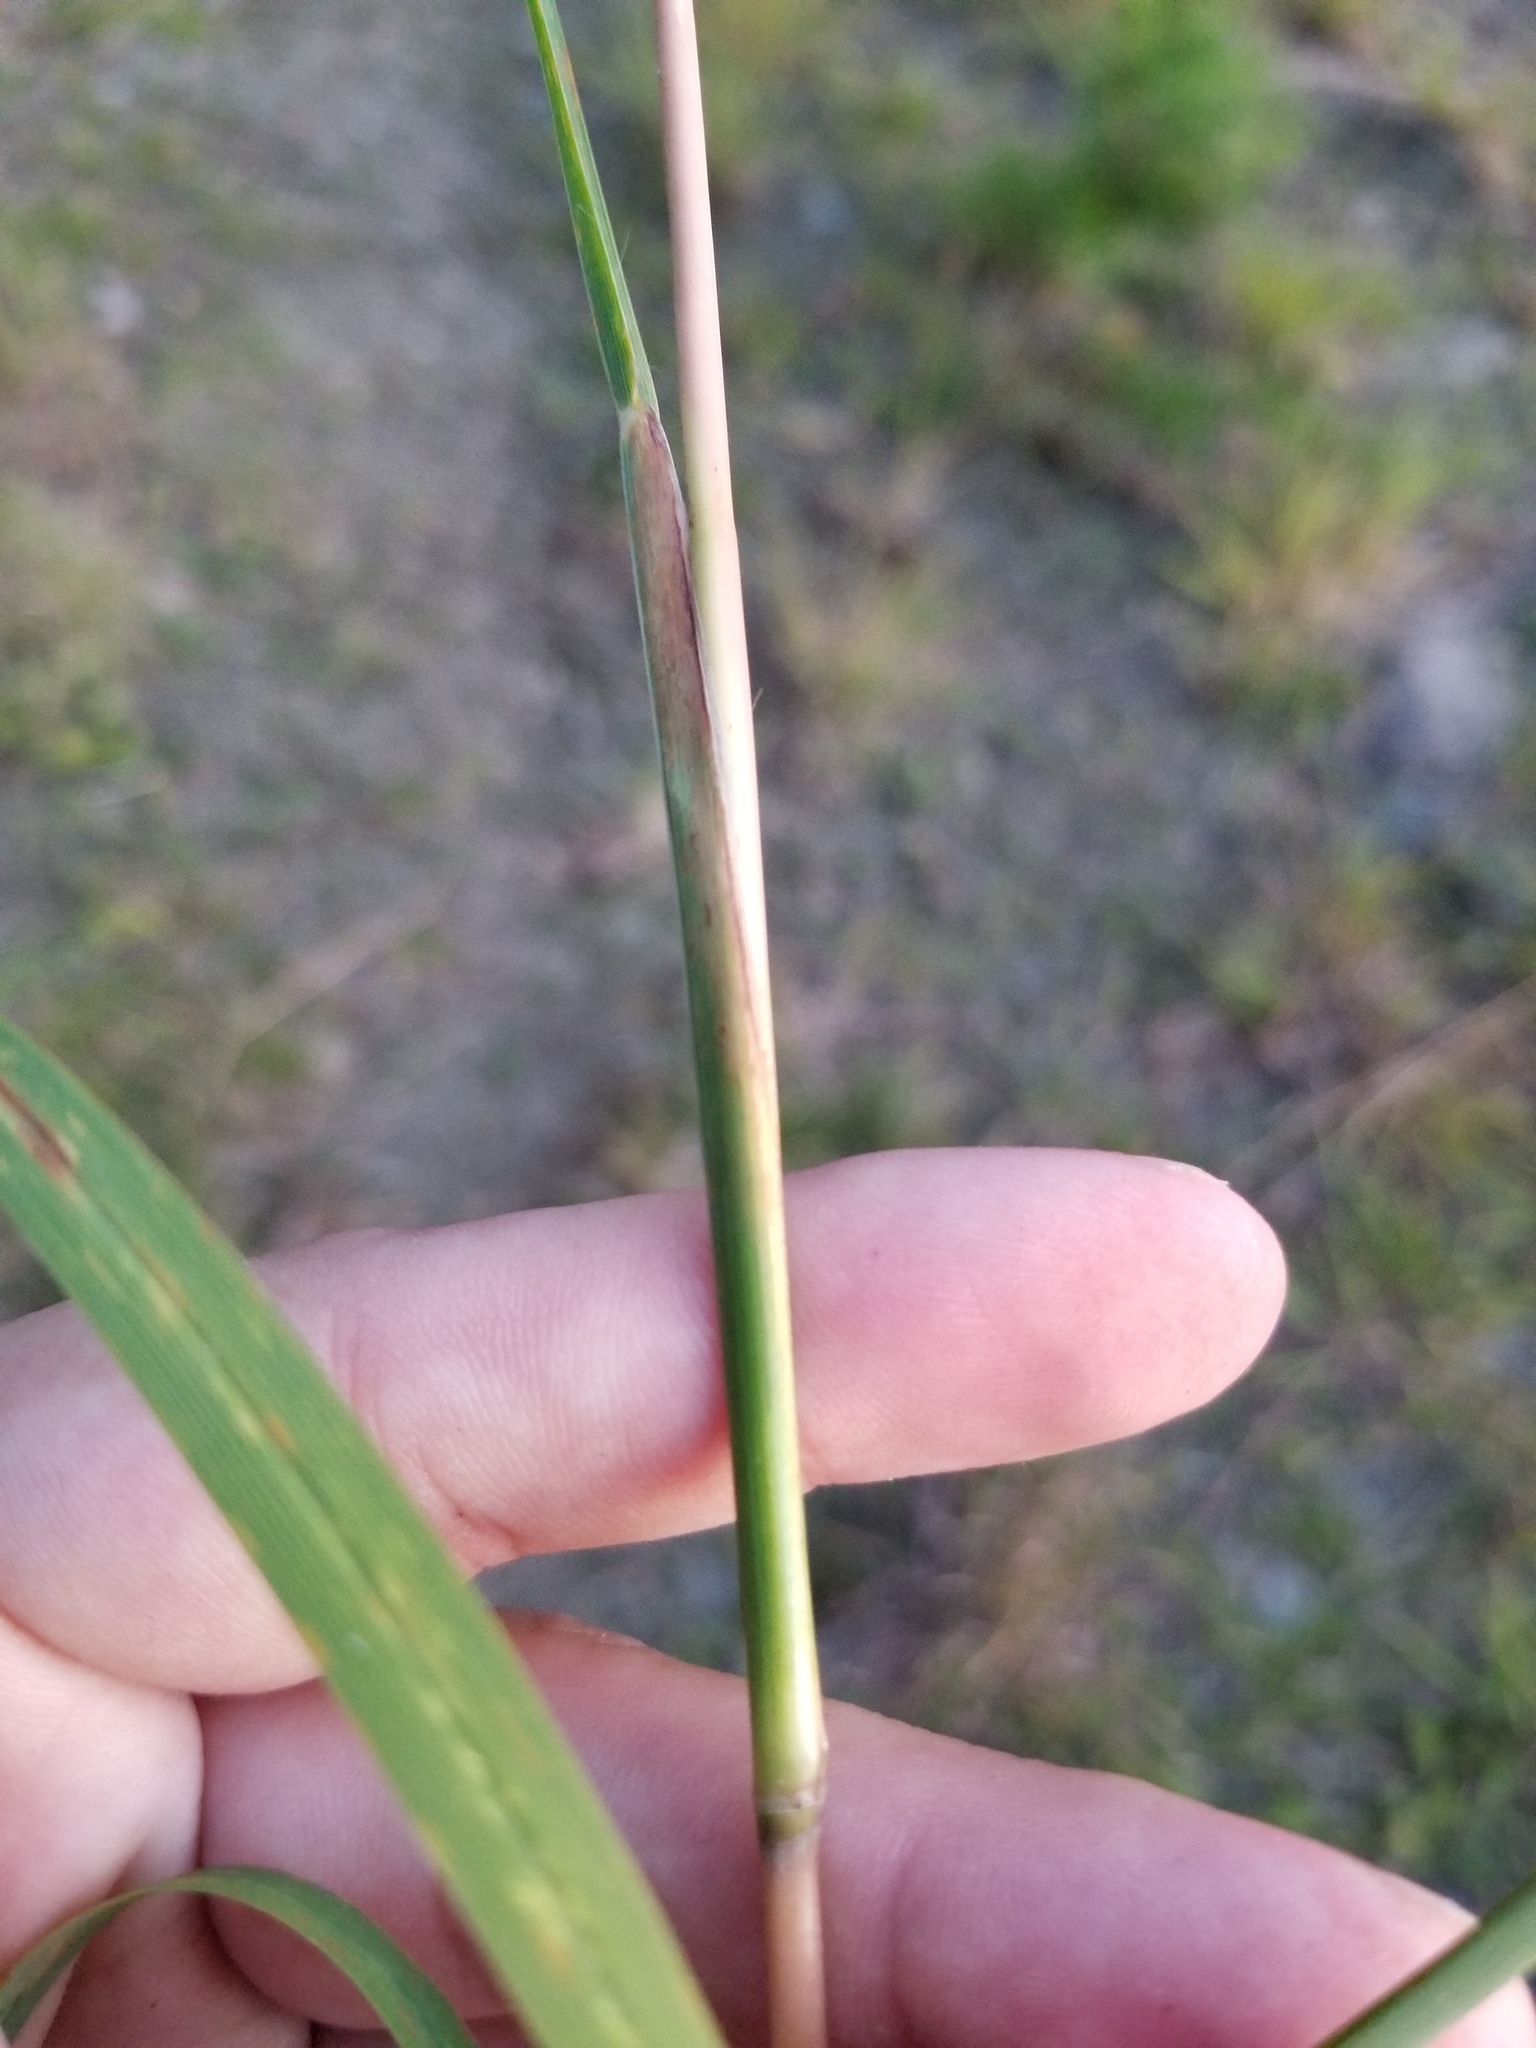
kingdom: Plantae
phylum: Tracheophyta
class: Liliopsida
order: Poales
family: Poaceae
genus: Schizachyrium
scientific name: Schizachyrium scoparium
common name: Little bluestem
